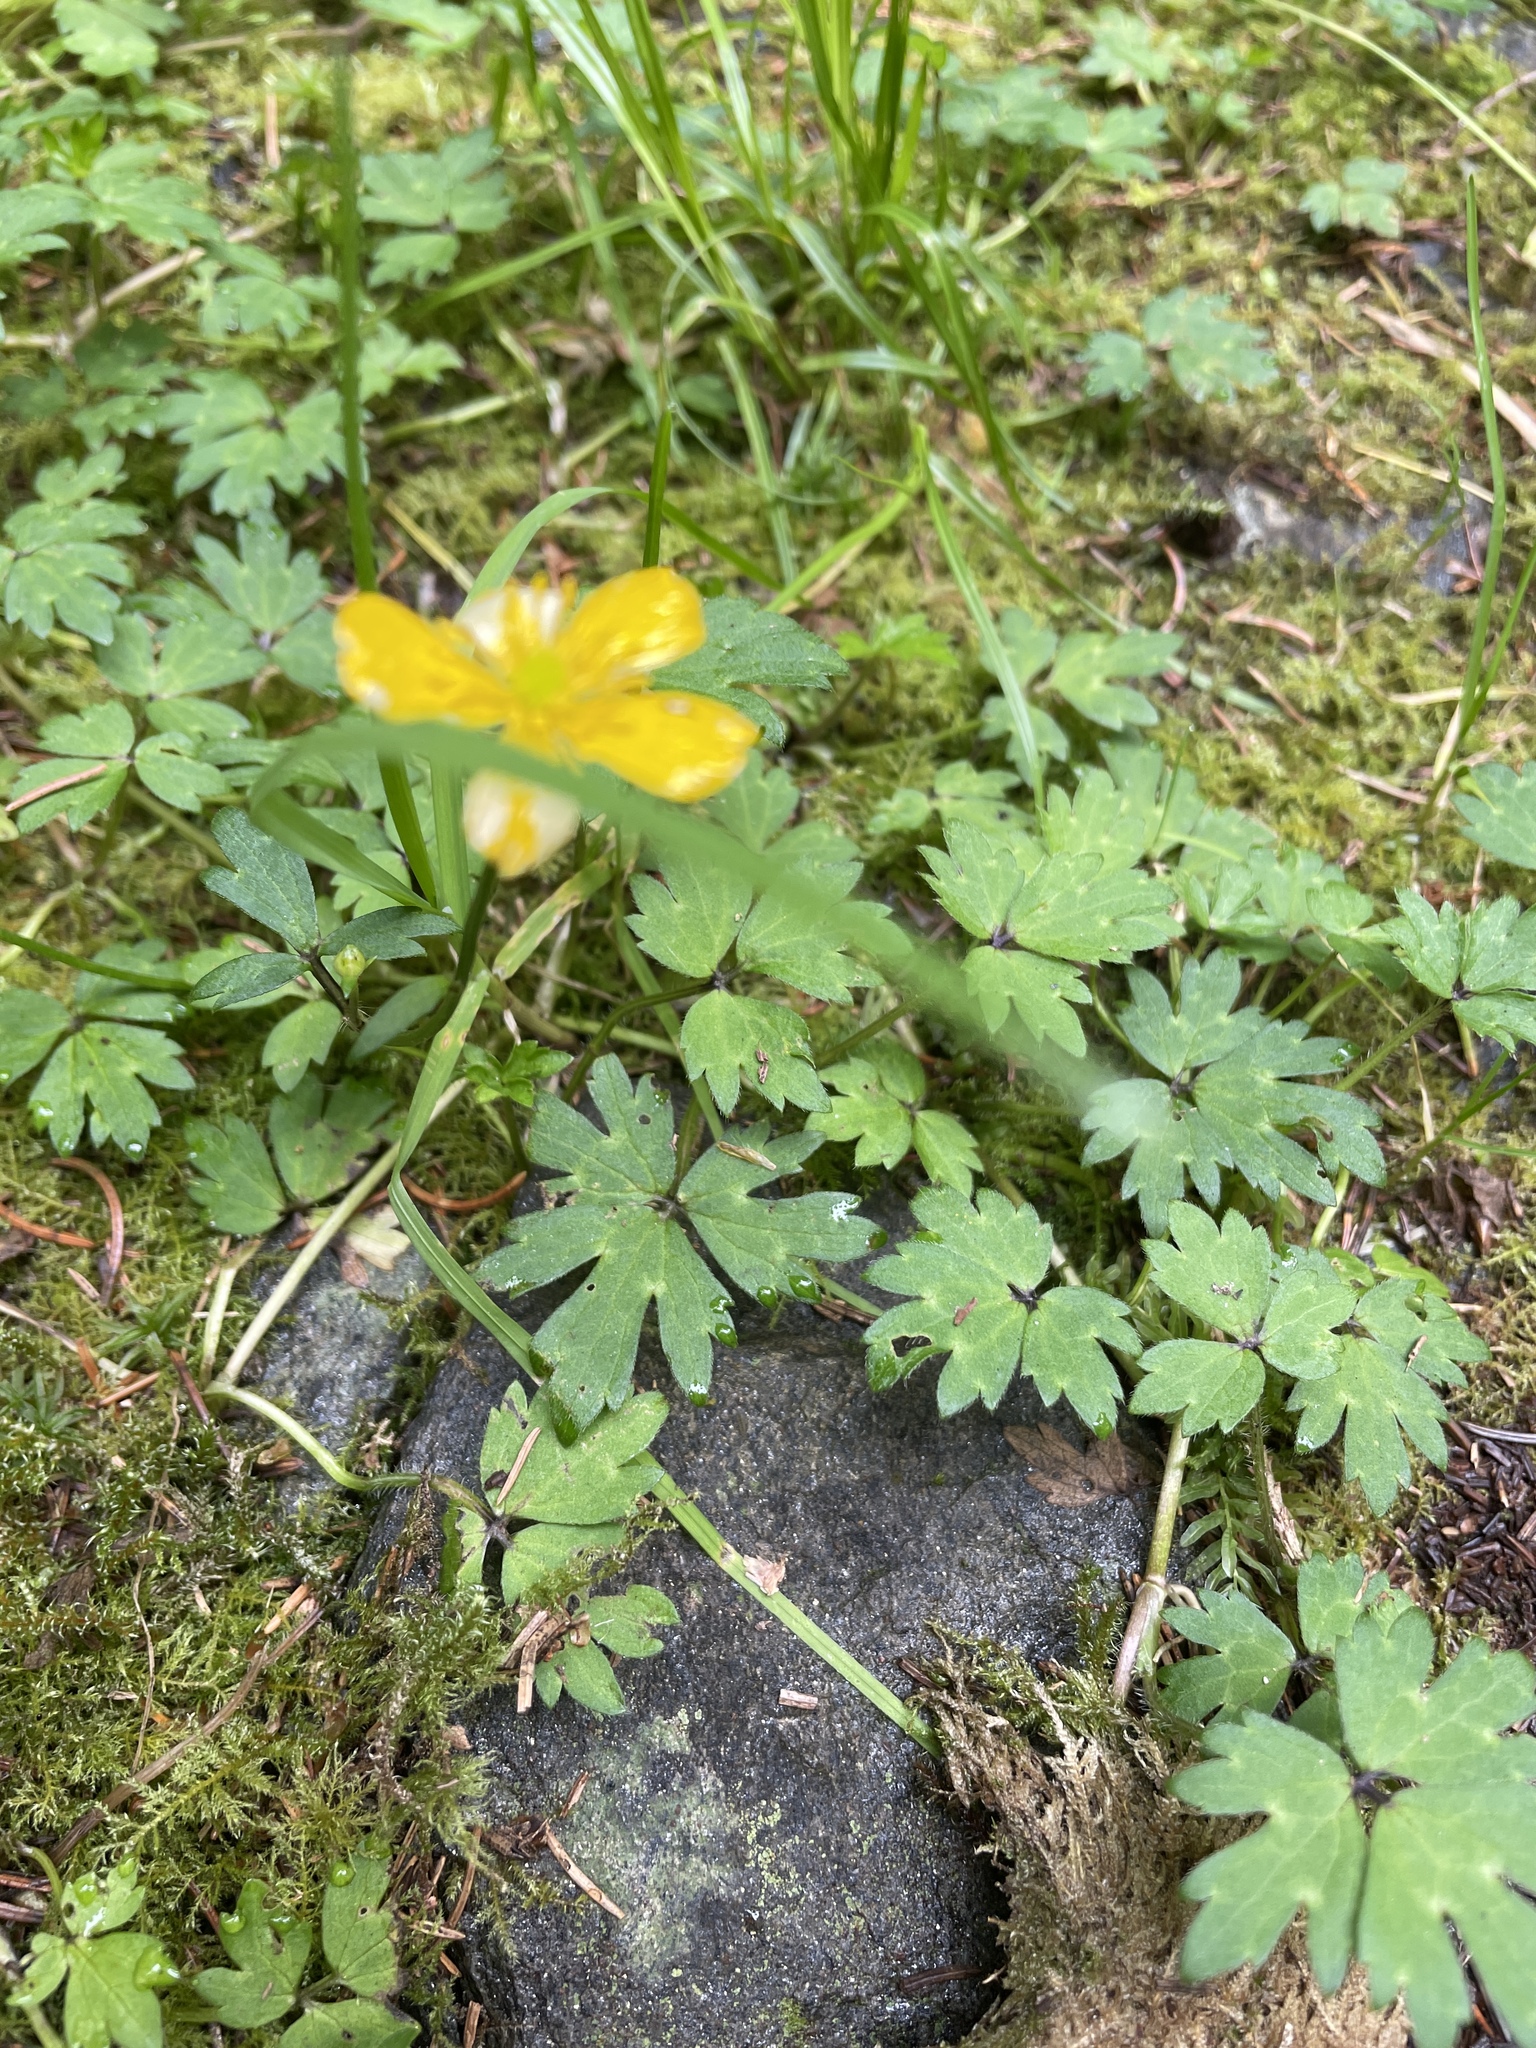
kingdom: Plantae
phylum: Tracheophyta
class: Magnoliopsida
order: Ranunculales
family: Ranunculaceae
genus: Ranunculus
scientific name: Ranunculus repens
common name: Creeping buttercup
